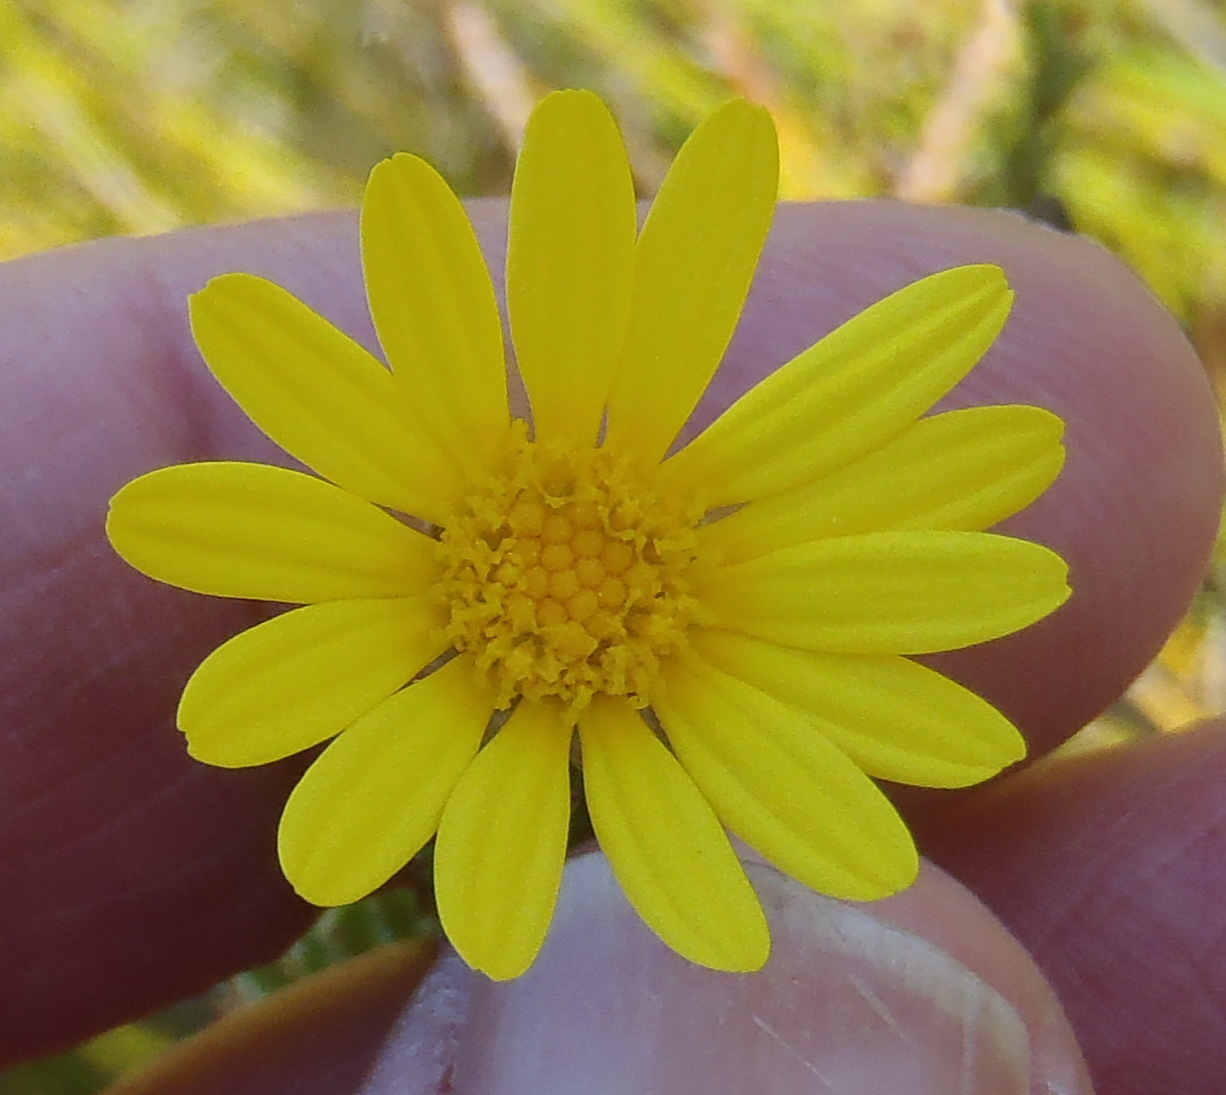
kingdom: Plantae
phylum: Tracheophyta
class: Magnoliopsida
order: Asterales
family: Asteraceae
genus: Ursinia
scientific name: Ursinia trifida
